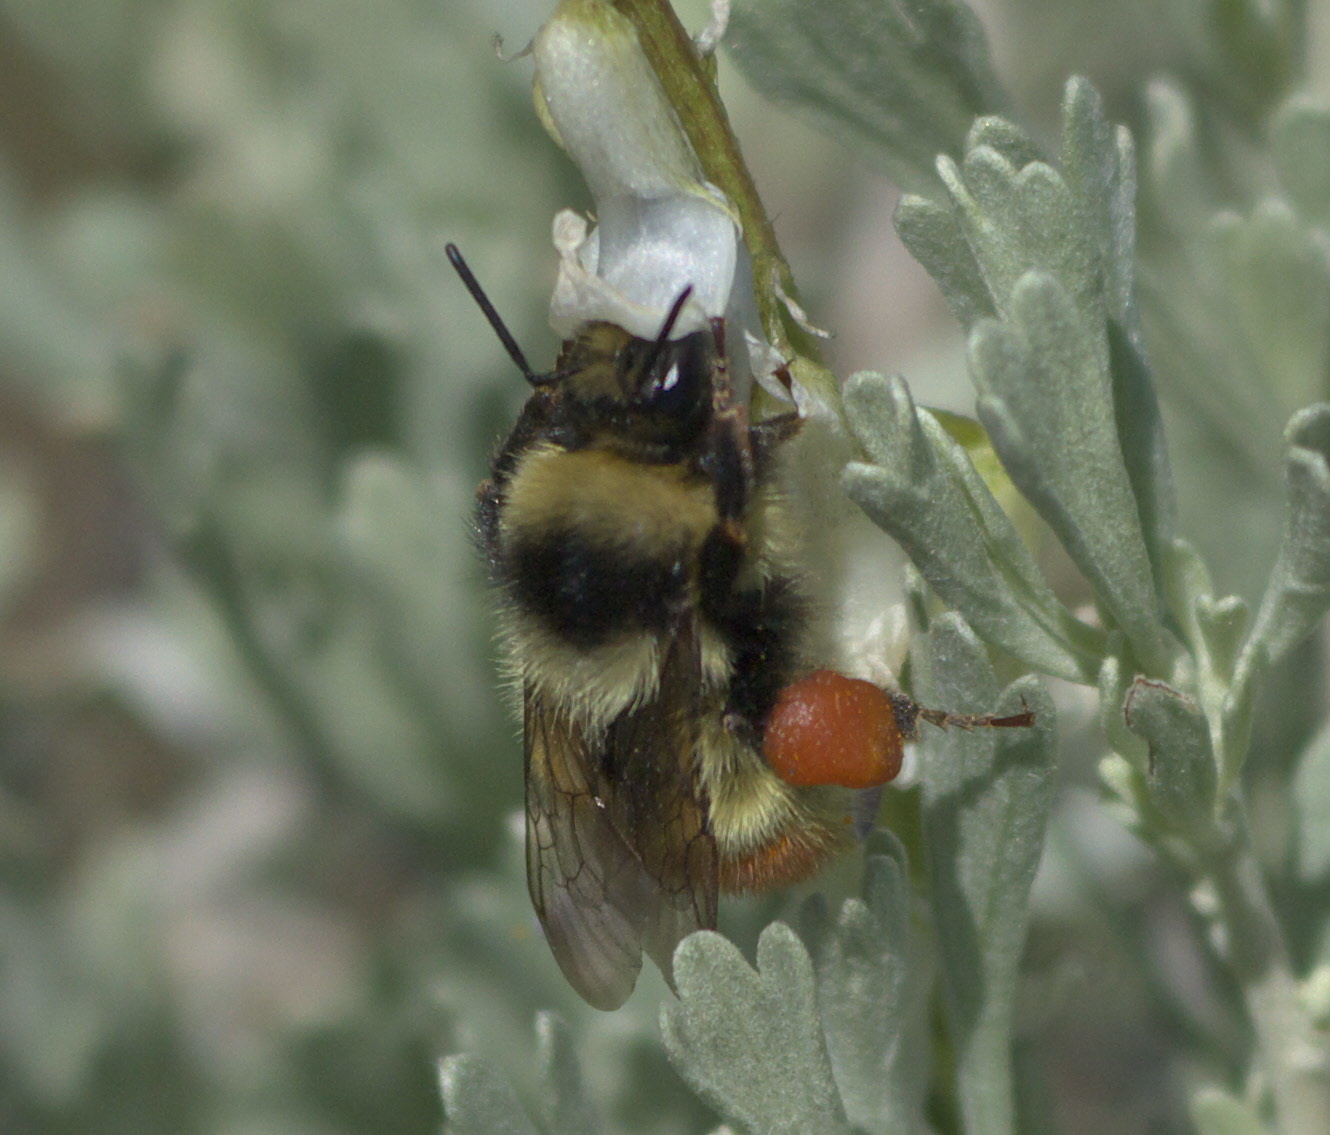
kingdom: Animalia
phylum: Arthropoda
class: Insecta
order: Hymenoptera
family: Apidae
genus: Bombus
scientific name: Bombus centralis
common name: Central bumble bee
